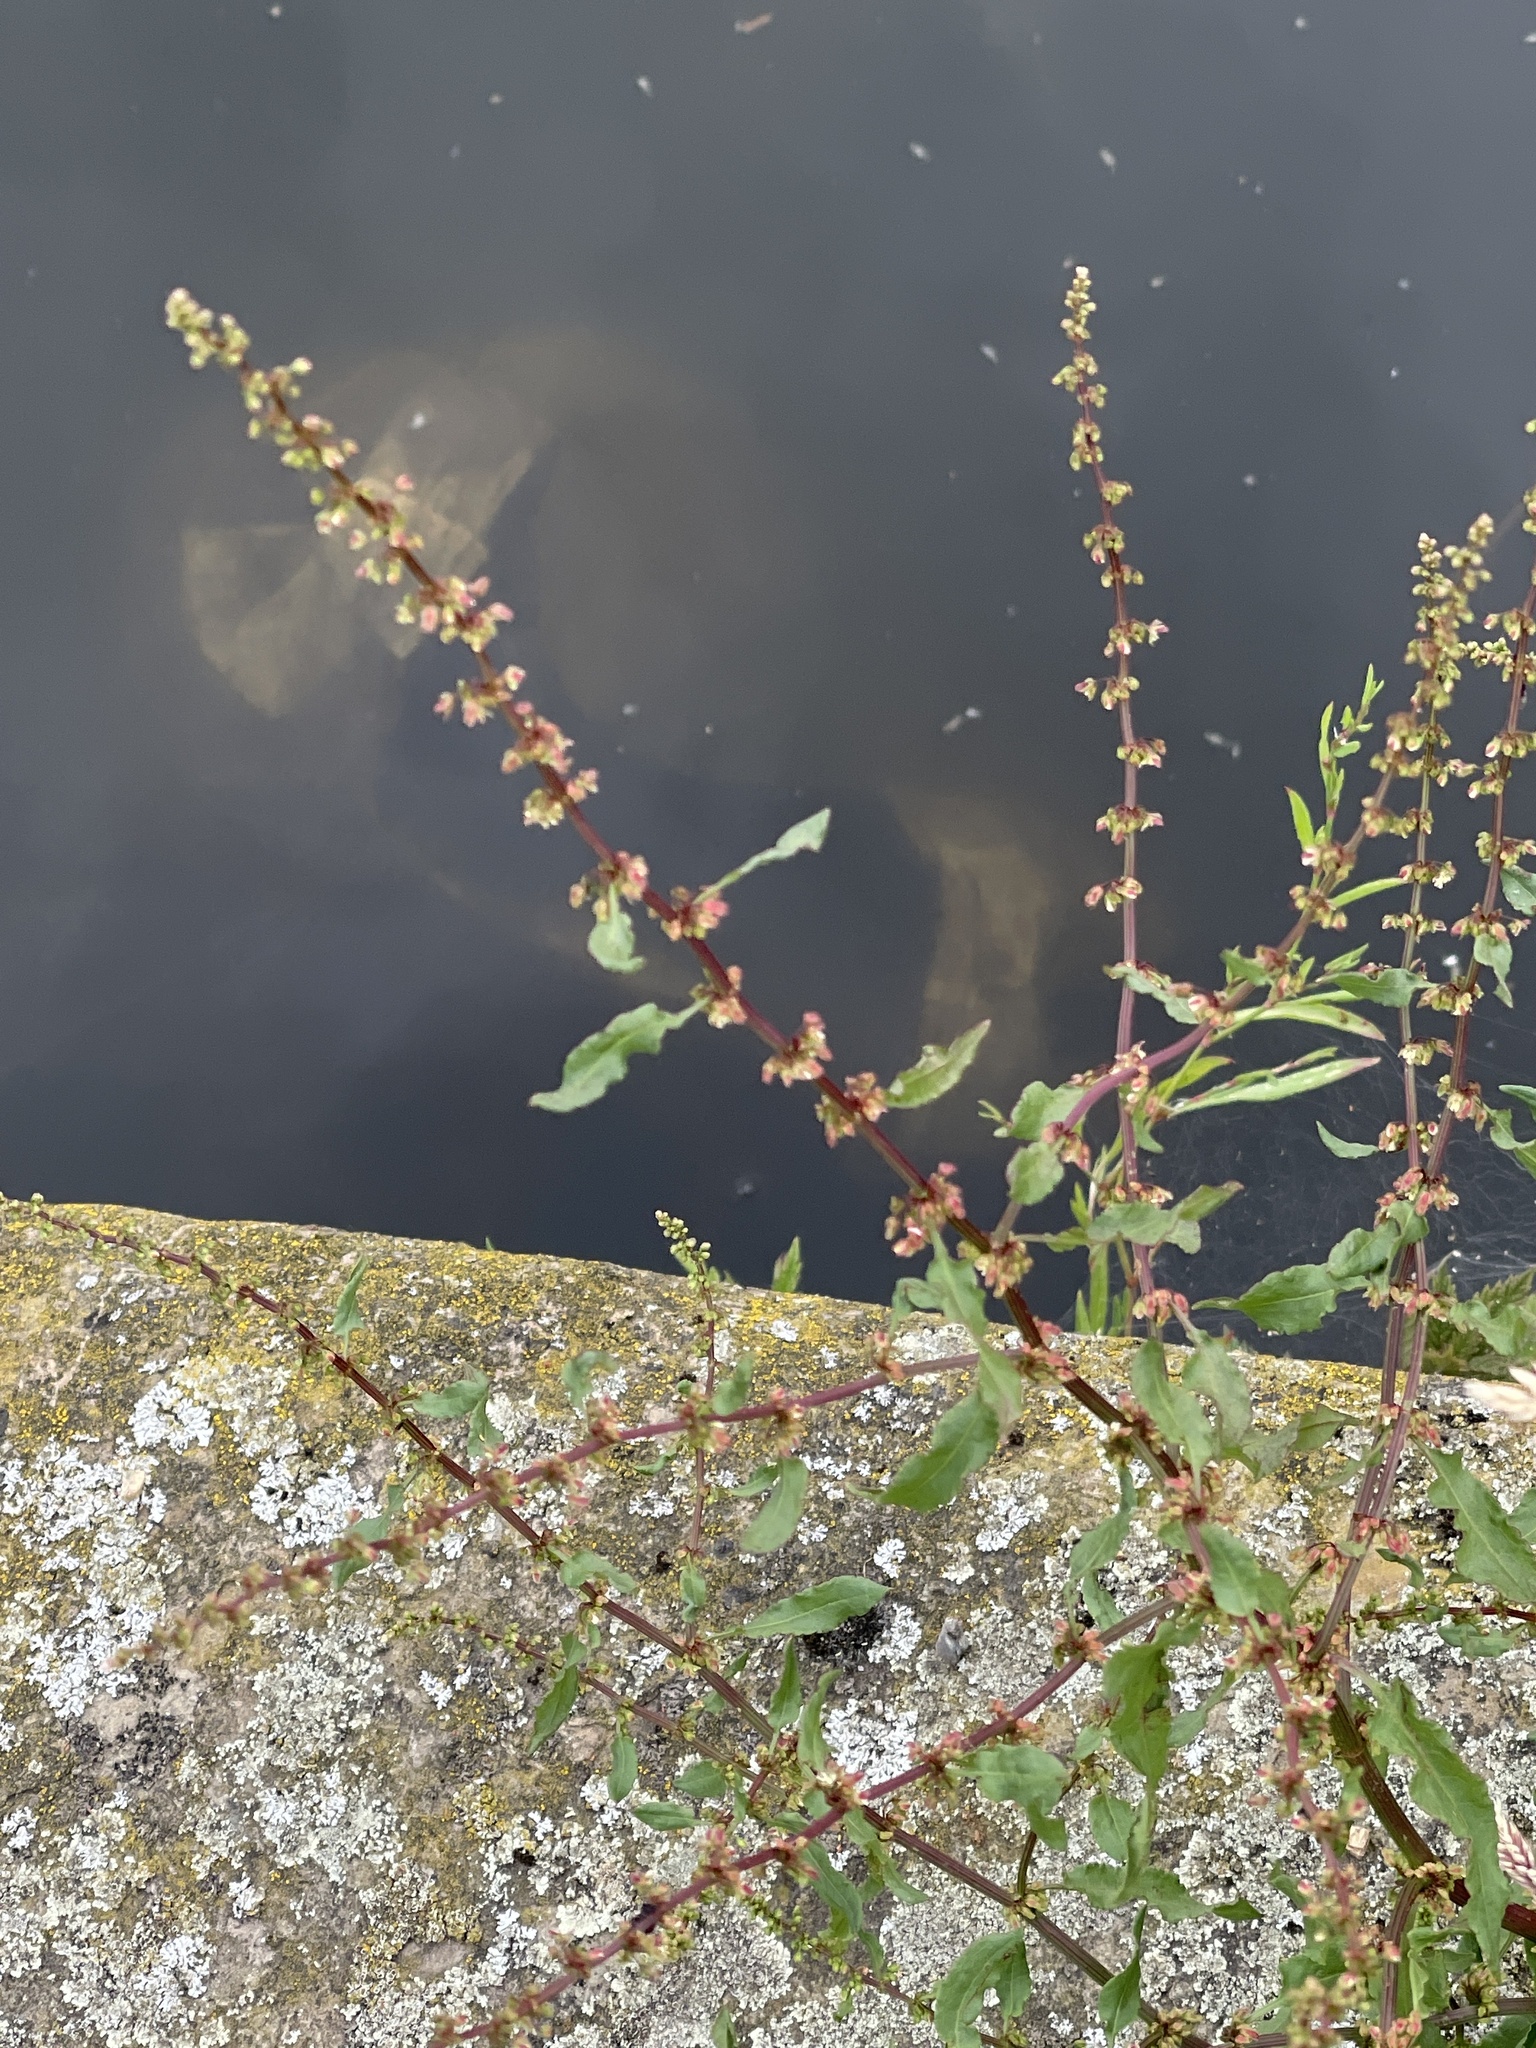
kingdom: Plantae
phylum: Tracheophyta
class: Magnoliopsida
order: Caryophyllales
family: Polygonaceae
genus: Rumex
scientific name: Rumex conglomeratus
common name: Clustered dock
